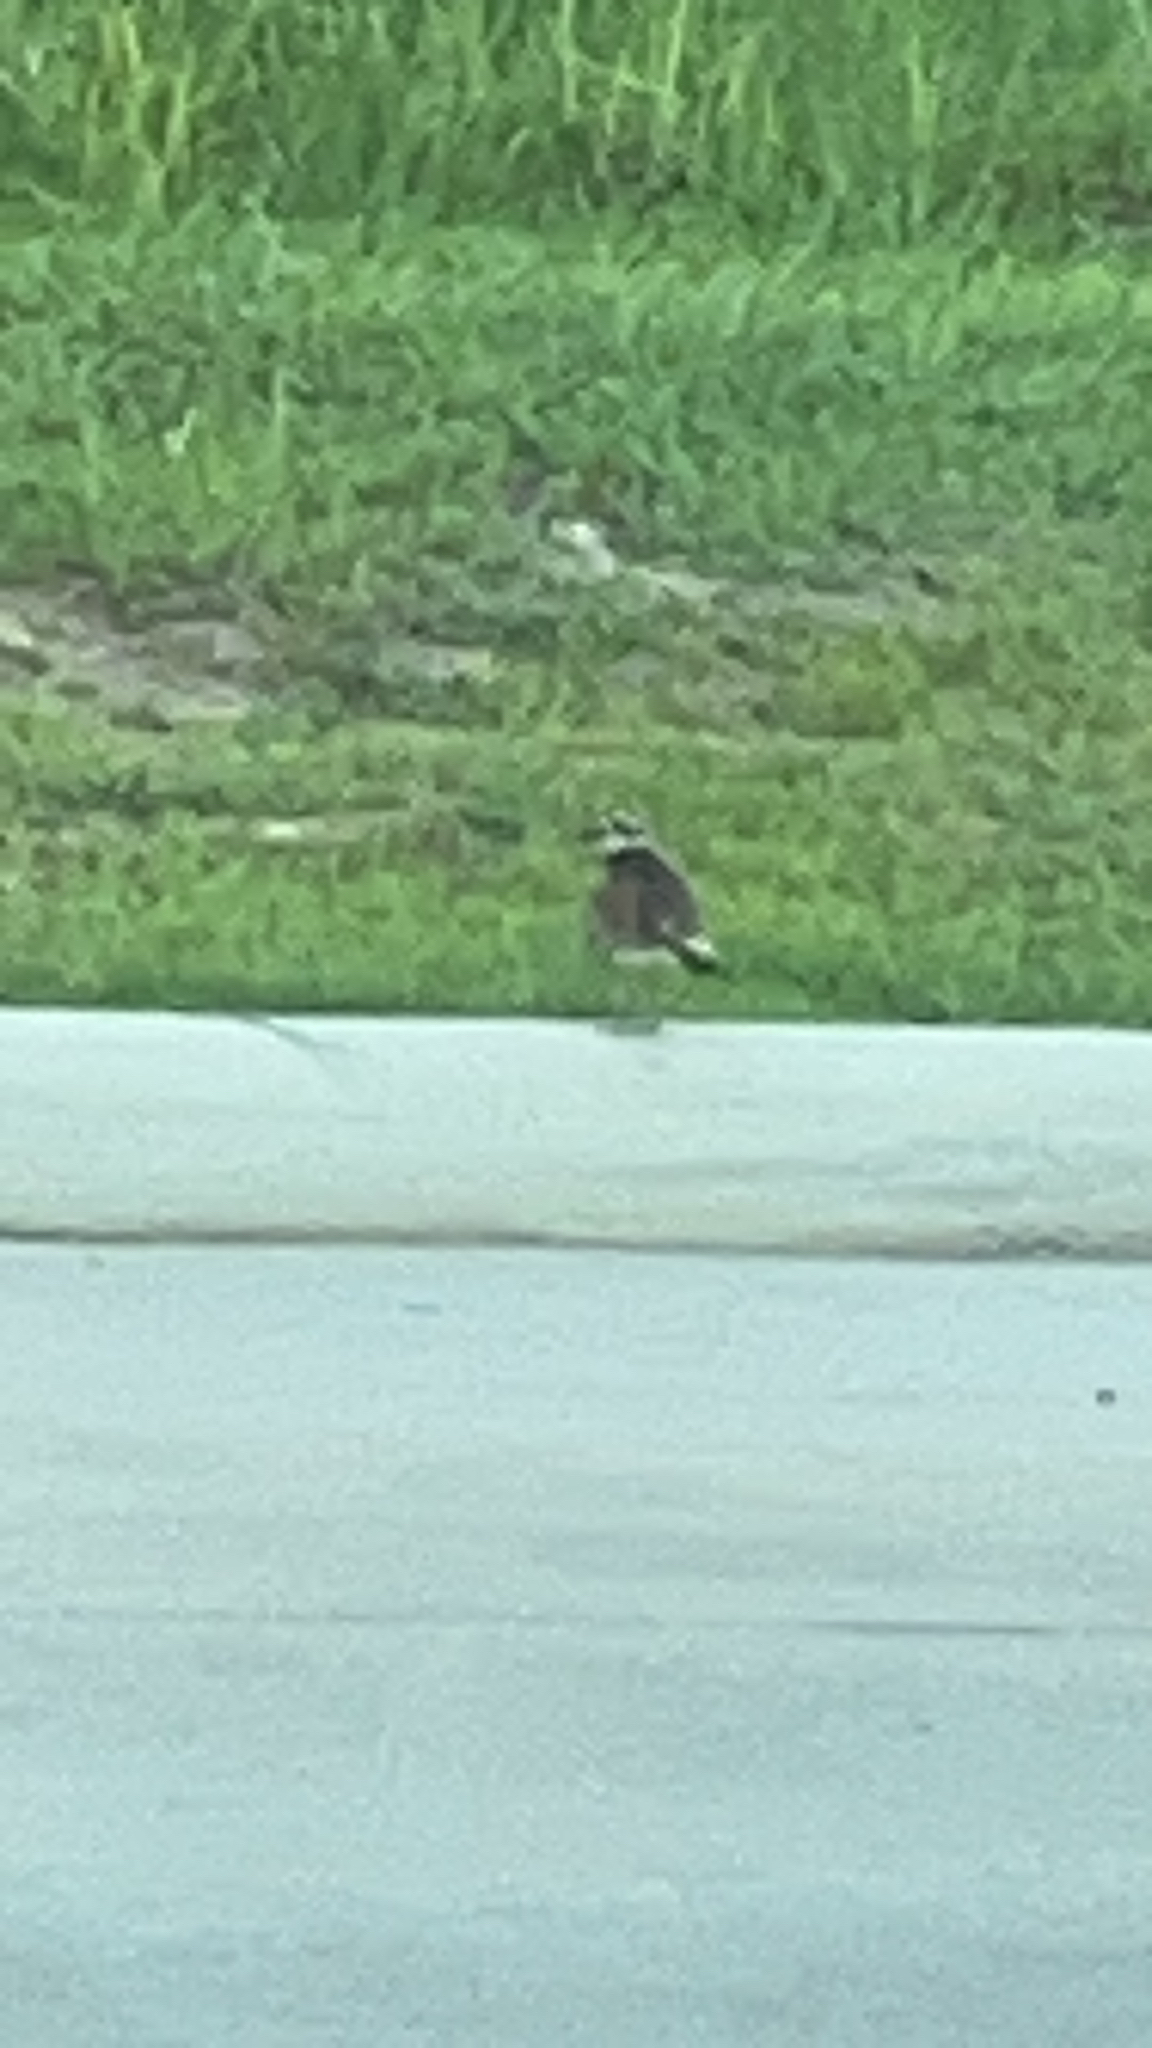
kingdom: Animalia
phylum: Chordata
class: Aves
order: Charadriiformes
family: Charadriidae
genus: Charadrius
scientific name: Charadrius vociferus
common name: Killdeer
